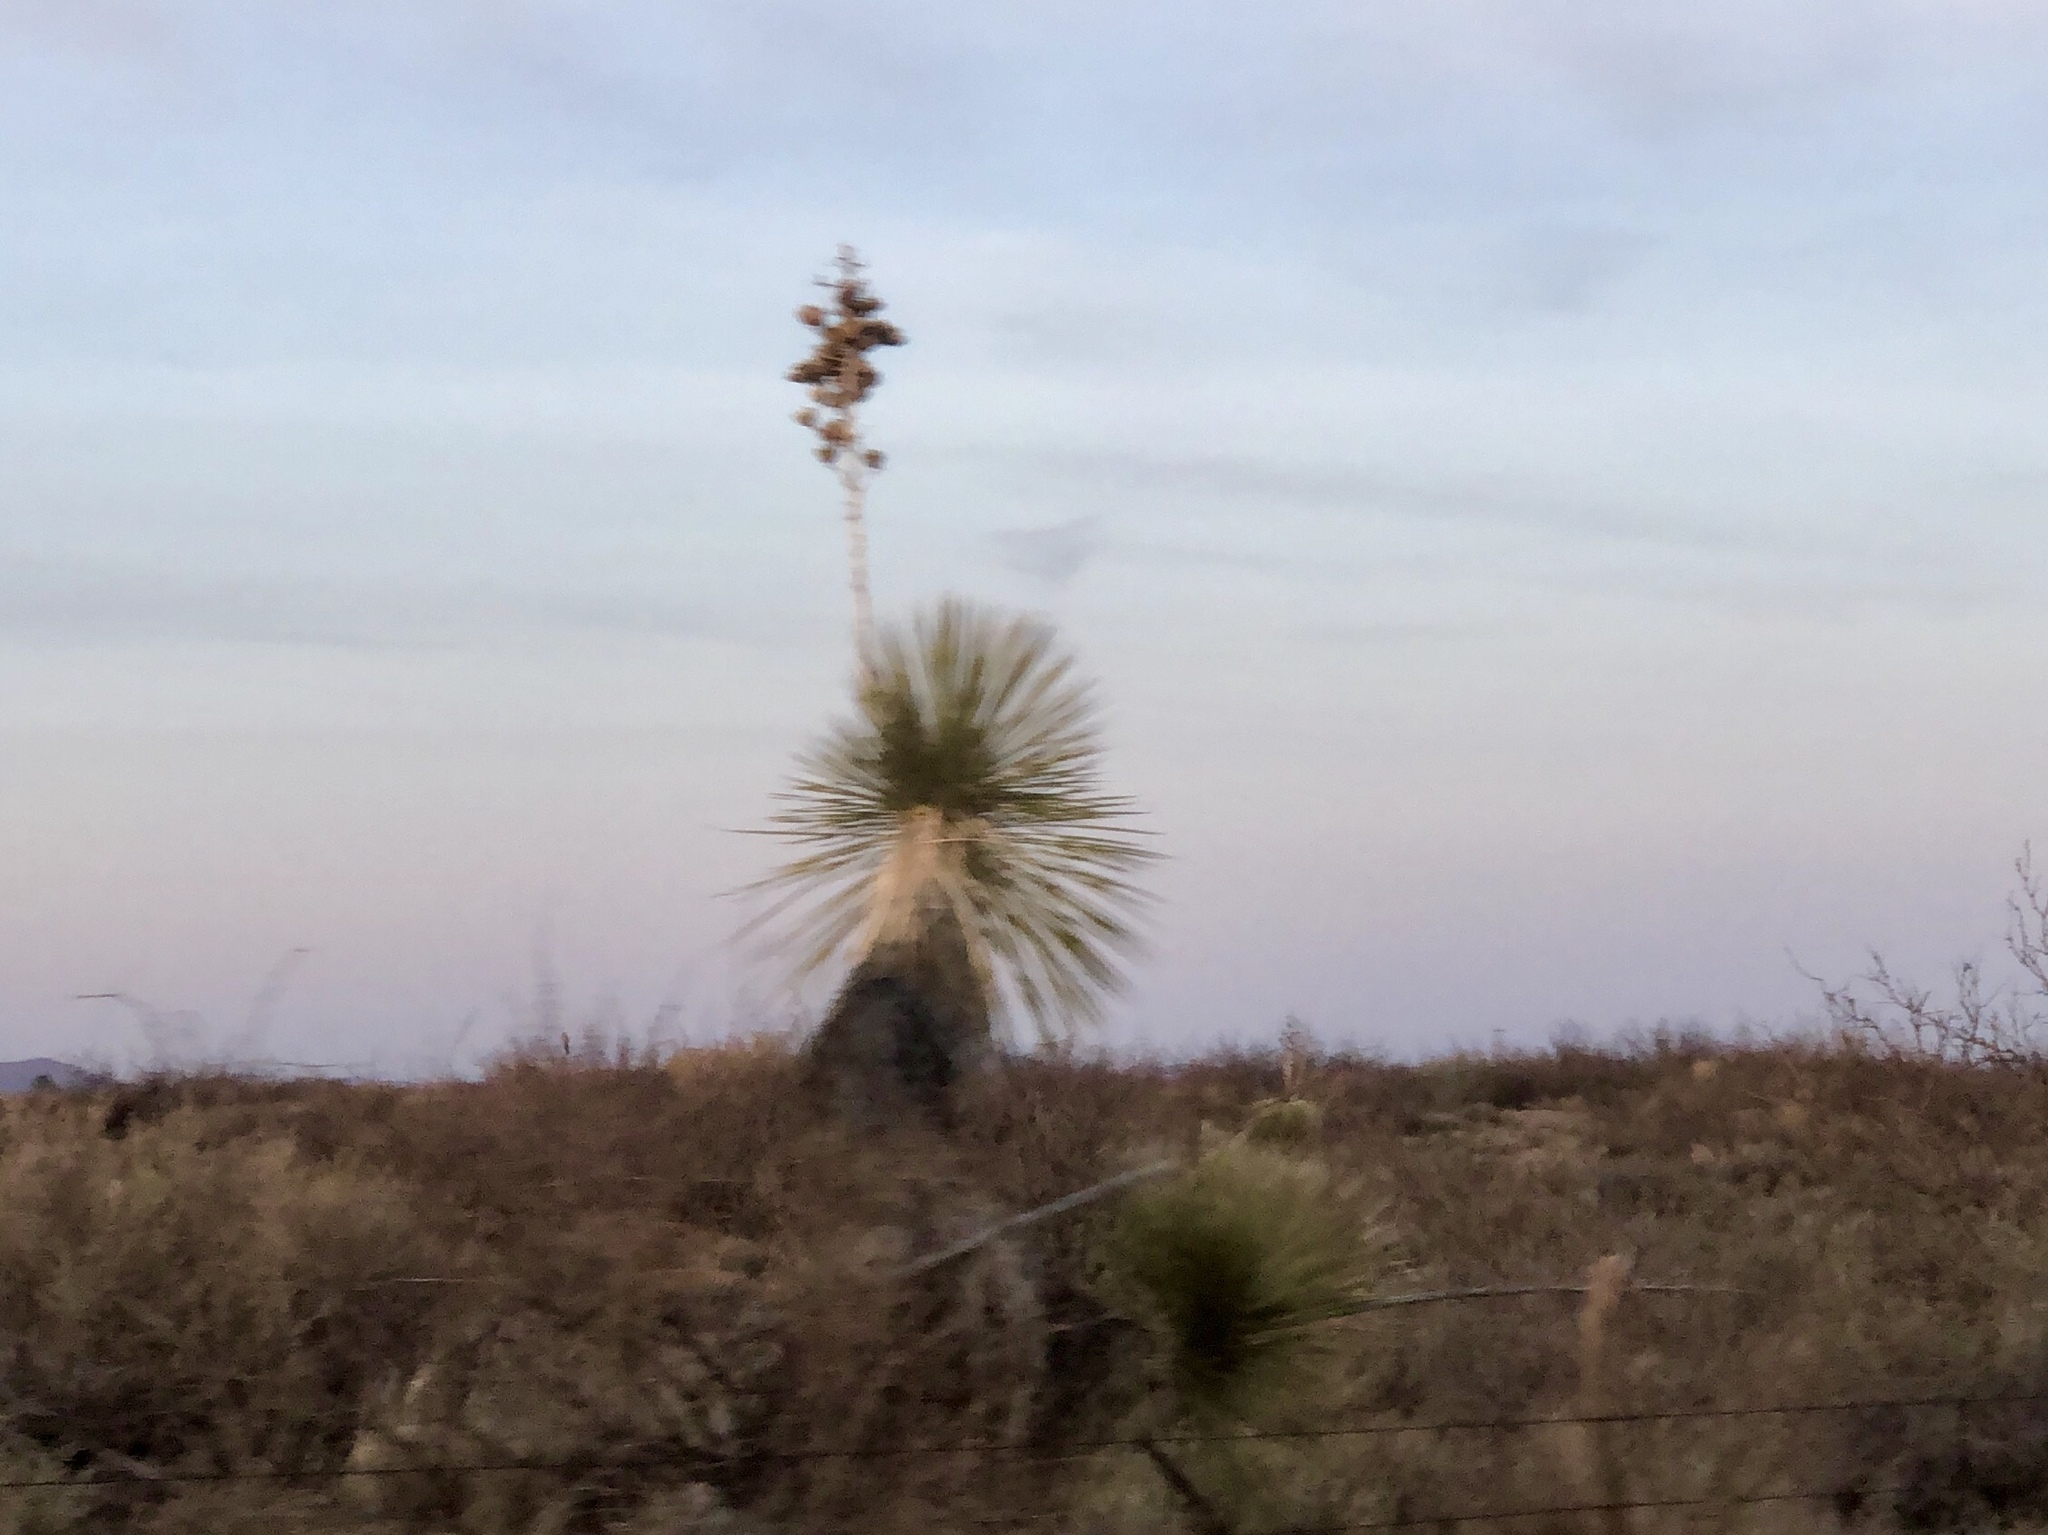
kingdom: Plantae
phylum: Tracheophyta
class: Liliopsida
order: Asparagales
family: Asparagaceae
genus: Yucca
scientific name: Yucca elata
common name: Palmella
